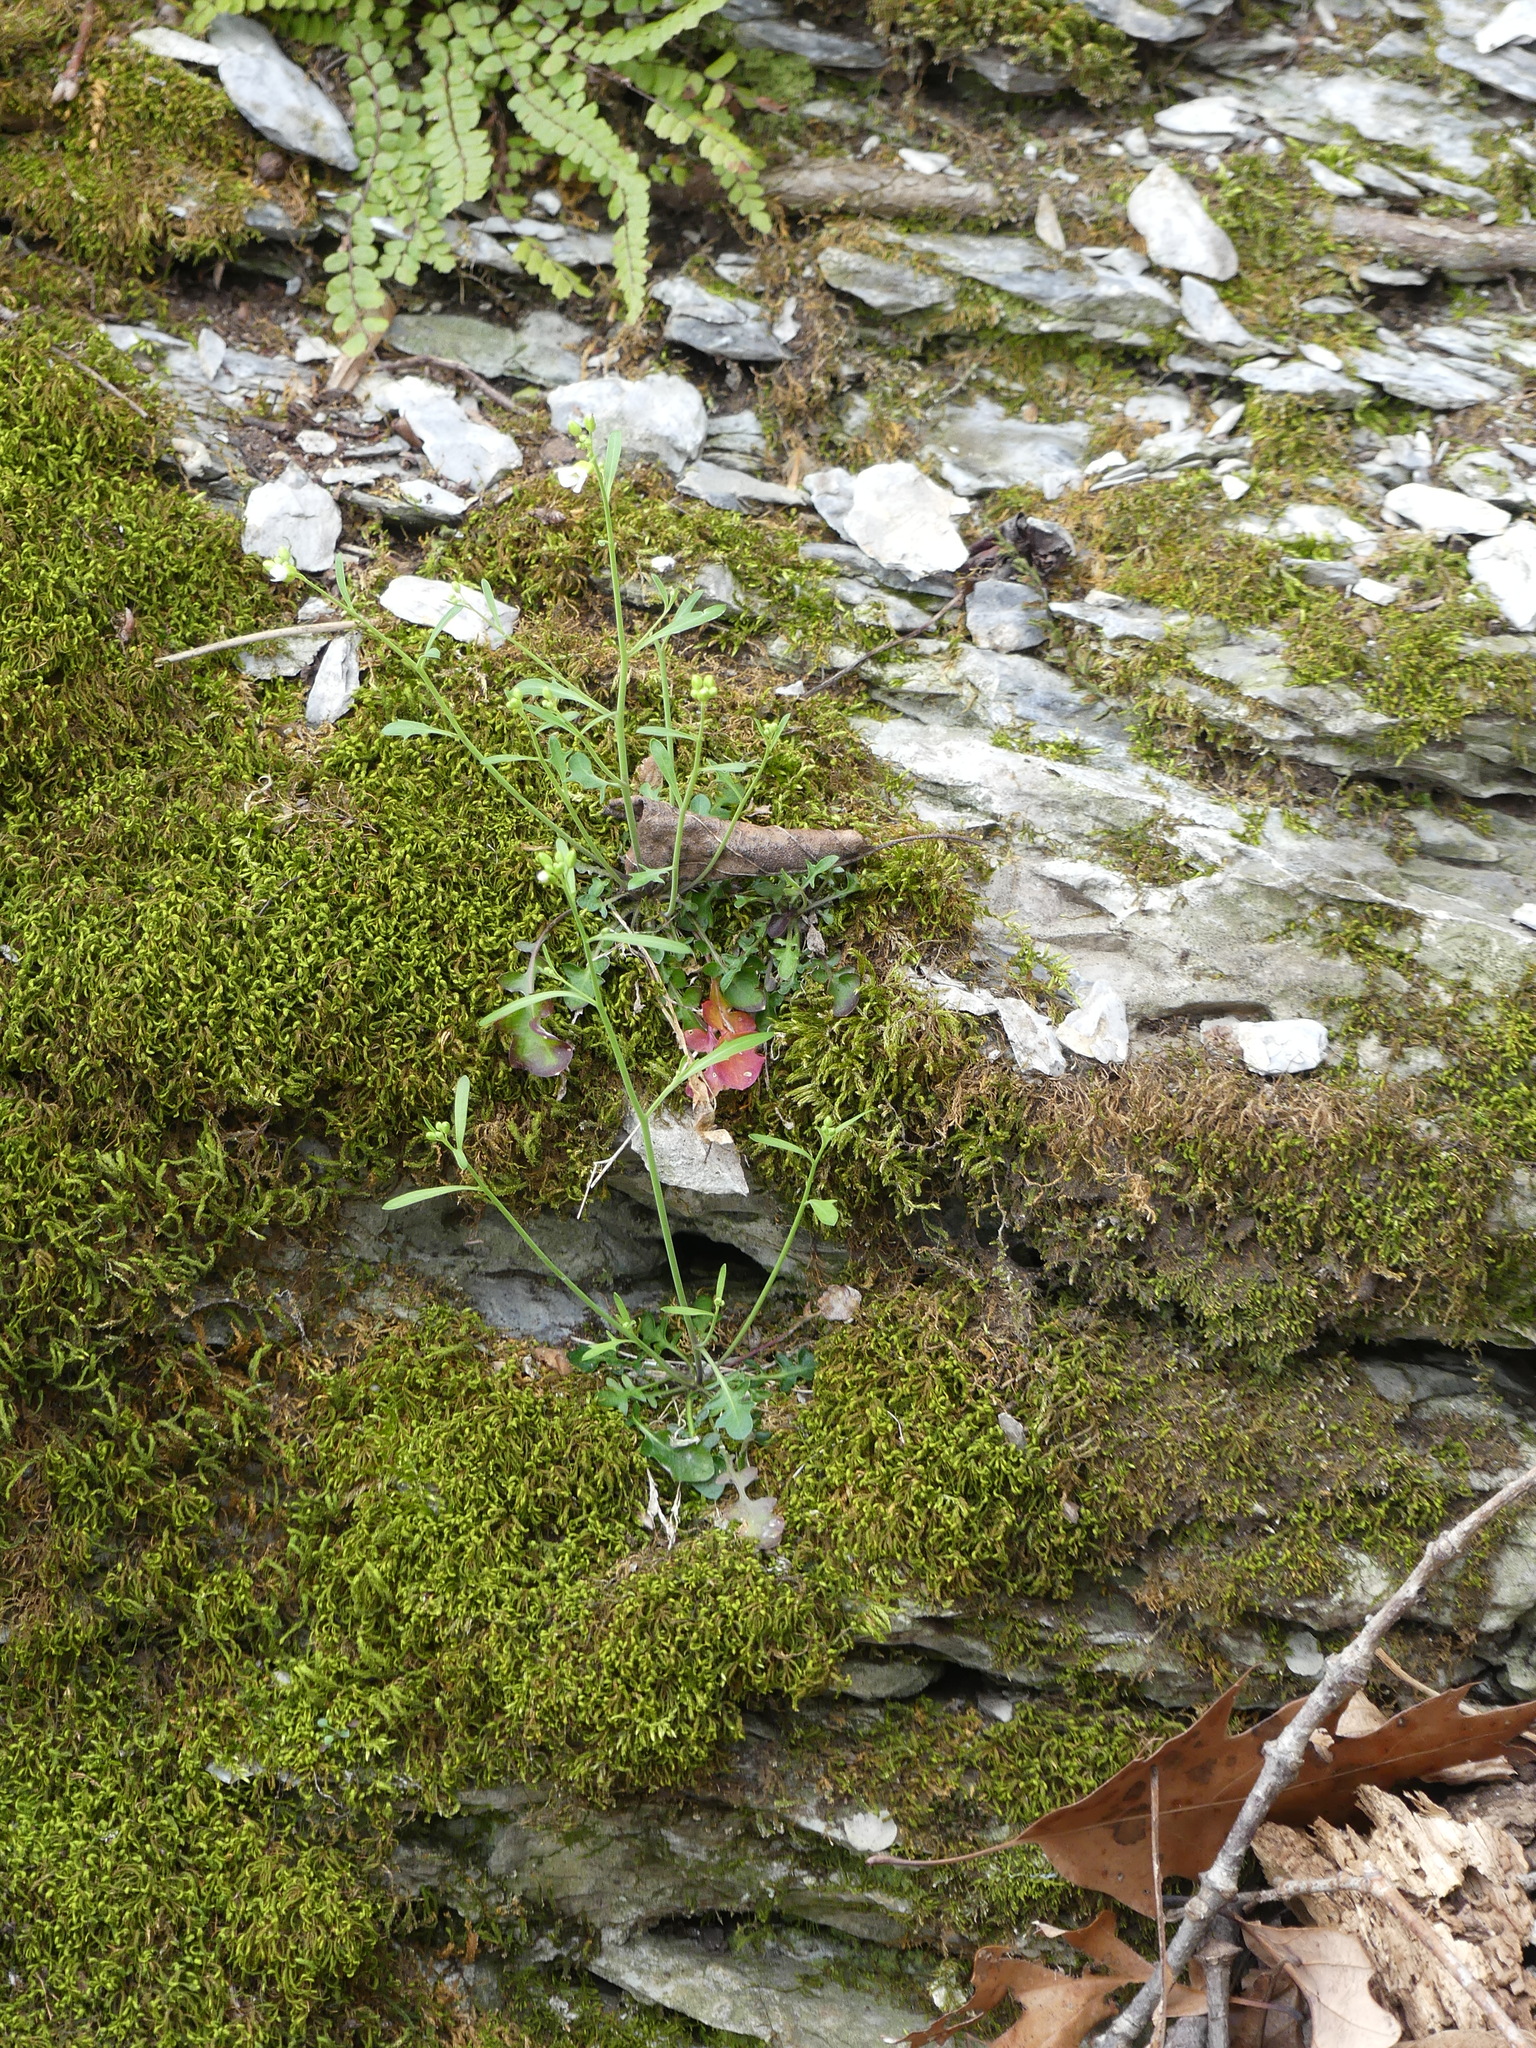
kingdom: Plantae
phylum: Tracheophyta
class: Magnoliopsida
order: Brassicales
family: Brassicaceae
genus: Arabidopsis
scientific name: Arabidopsis lyrata
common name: Lyrate rockcress
